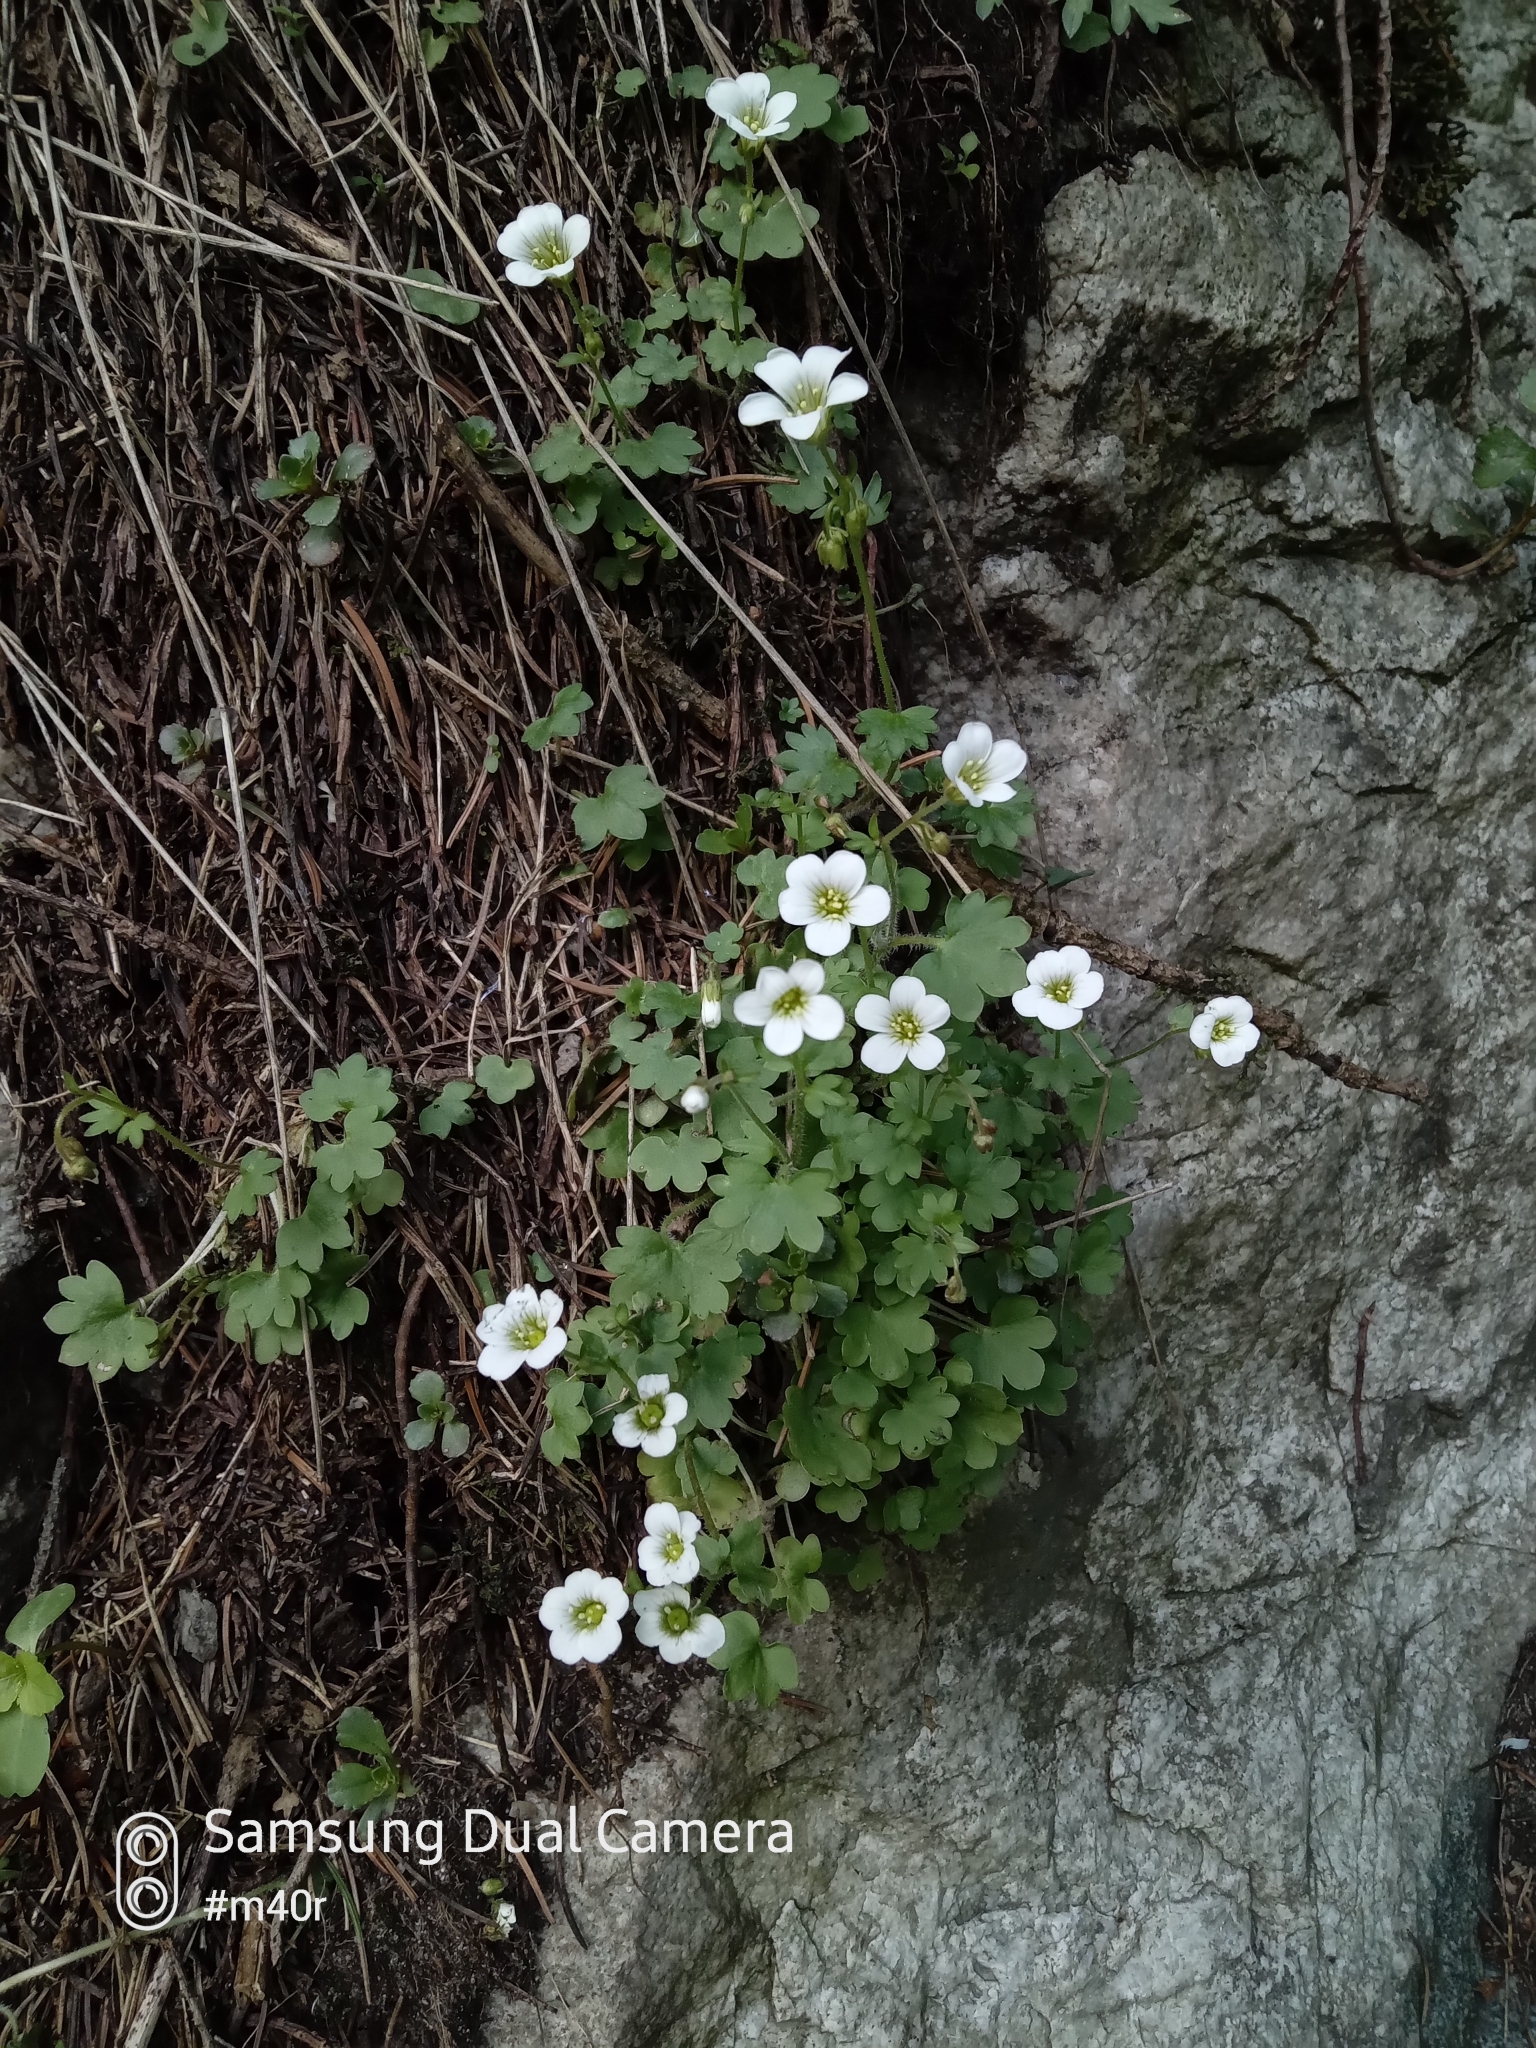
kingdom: Plantae
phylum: Tracheophyta
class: Magnoliopsida
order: Saxifragales
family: Saxifragaceae
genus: Saxifraga
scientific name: Saxifraga sibirica
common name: Siberian saxifrage
